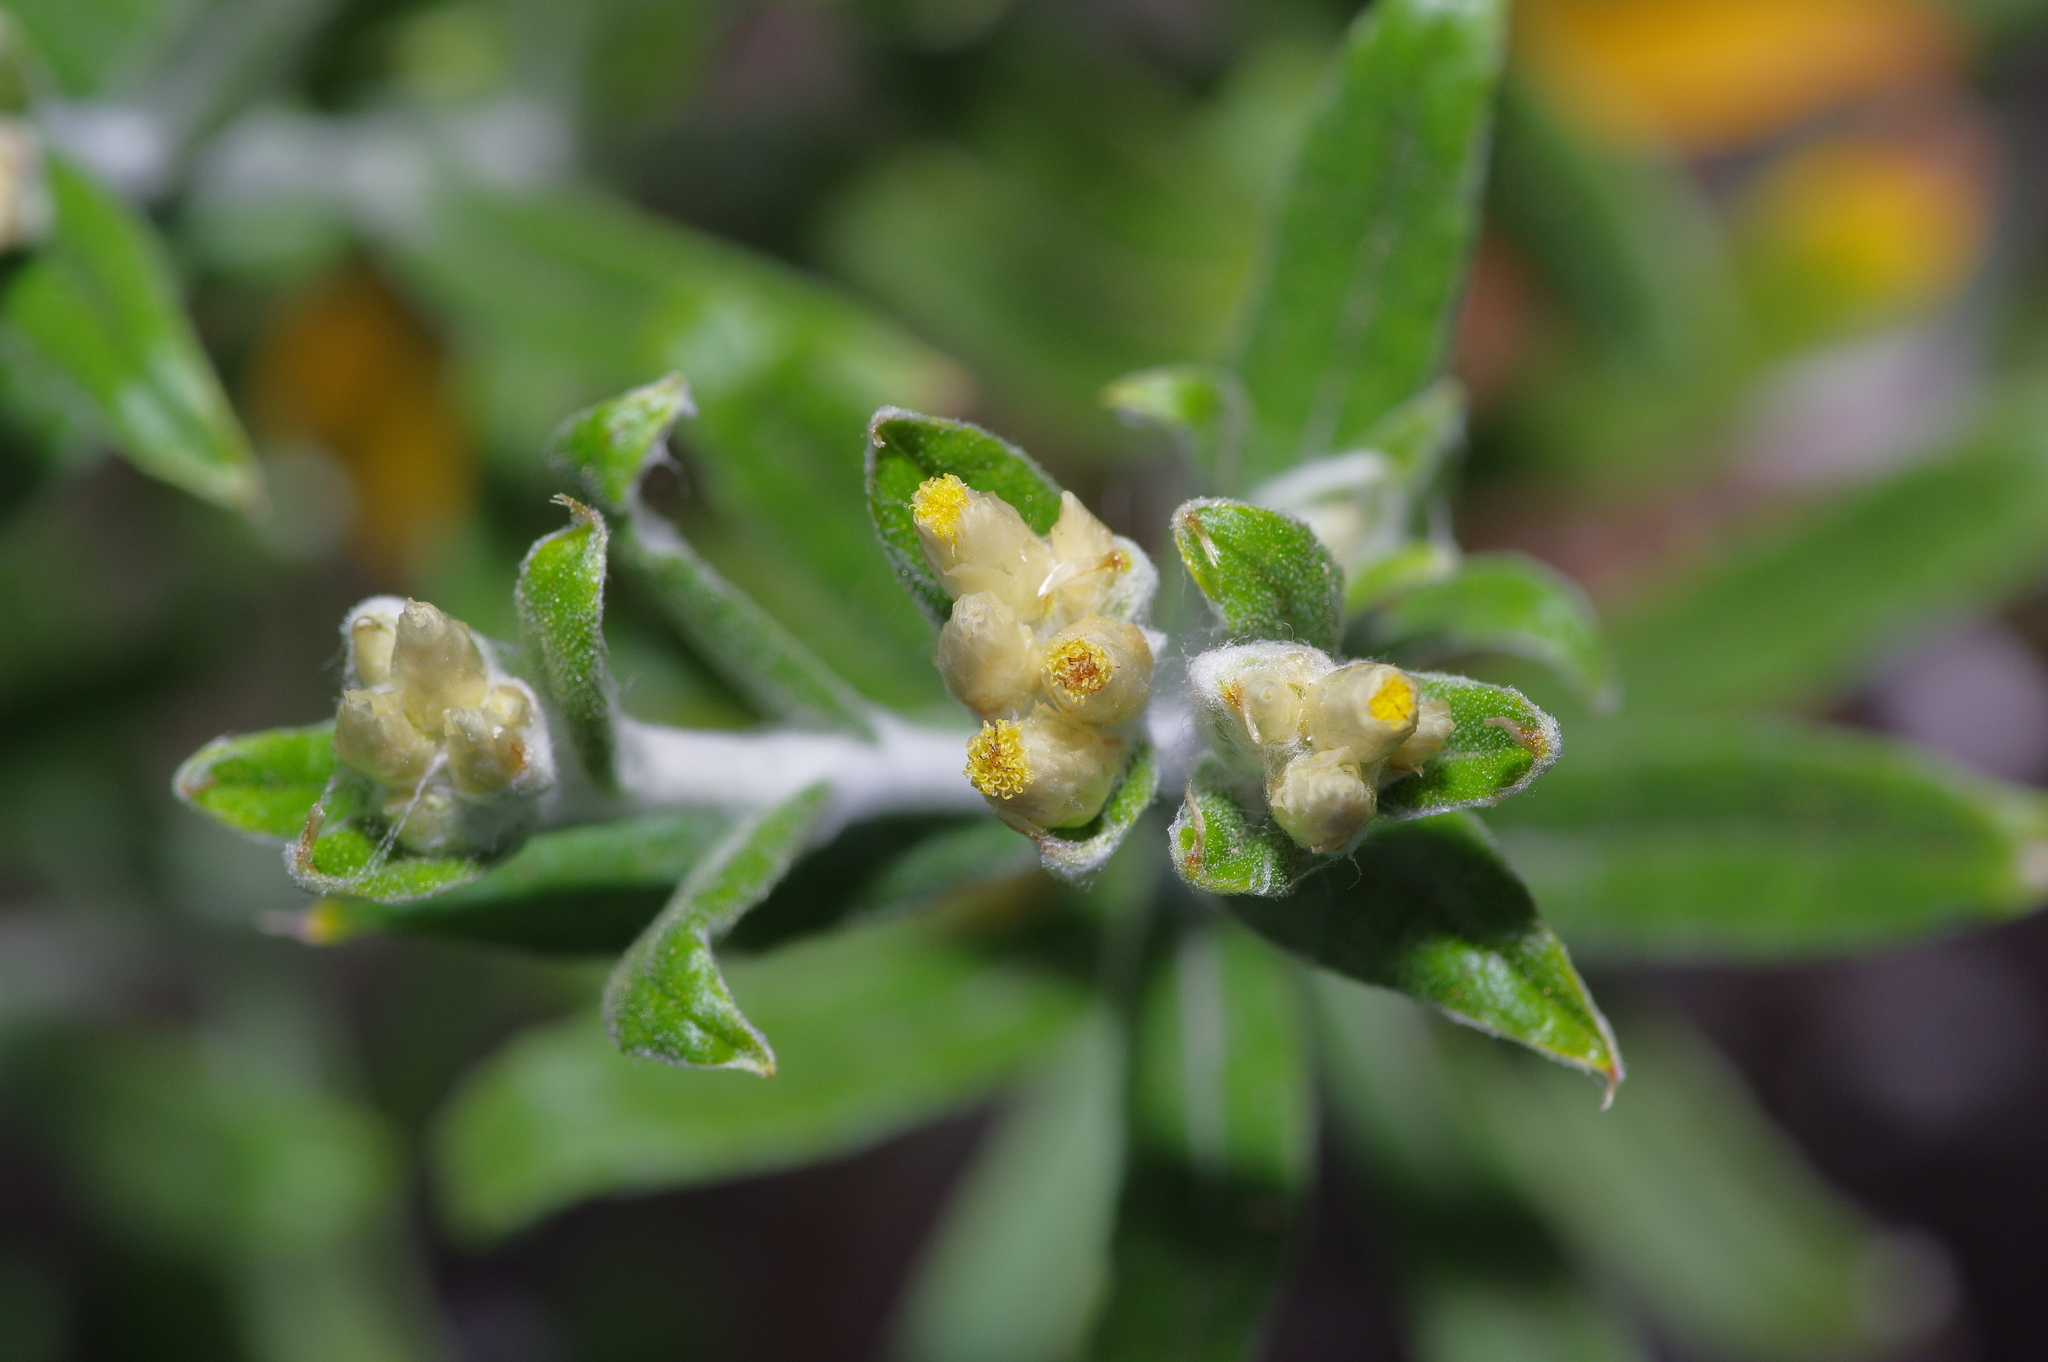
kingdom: Plantae
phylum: Tracheophyta
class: Magnoliopsida
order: Asterales
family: Asteraceae
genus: Pseudognaphalium
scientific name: Pseudognaphalium obtusifolium
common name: Eastern rabbit-tobacco
